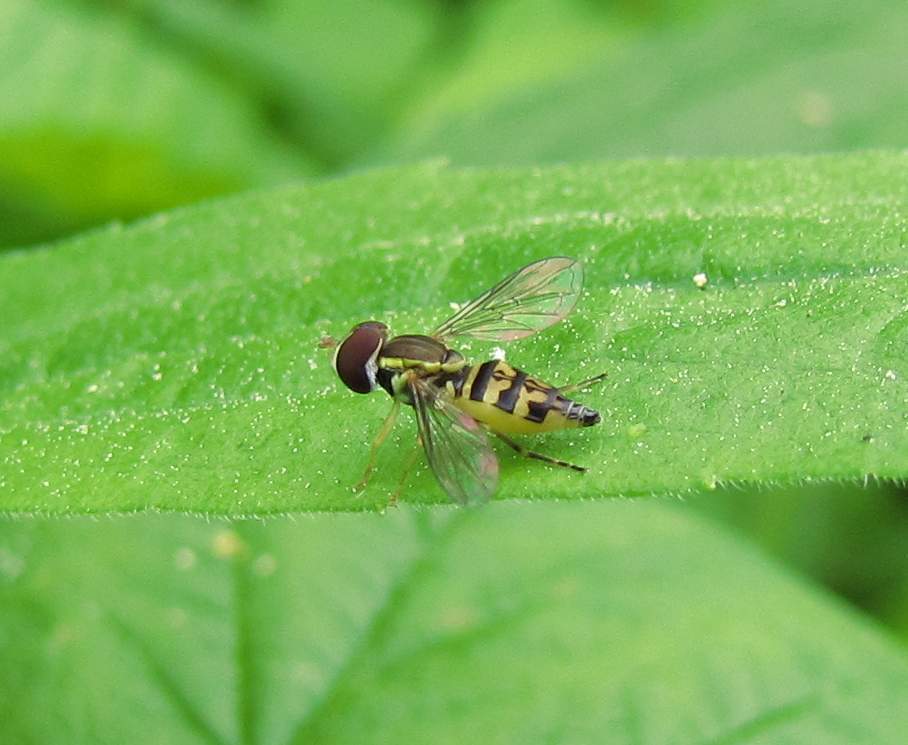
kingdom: Animalia
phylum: Arthropoda
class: Insecta
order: Diptera
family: Syrphidae
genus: Toxomerus
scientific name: Toxomerus geminatus
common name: Eastern calligrapher
